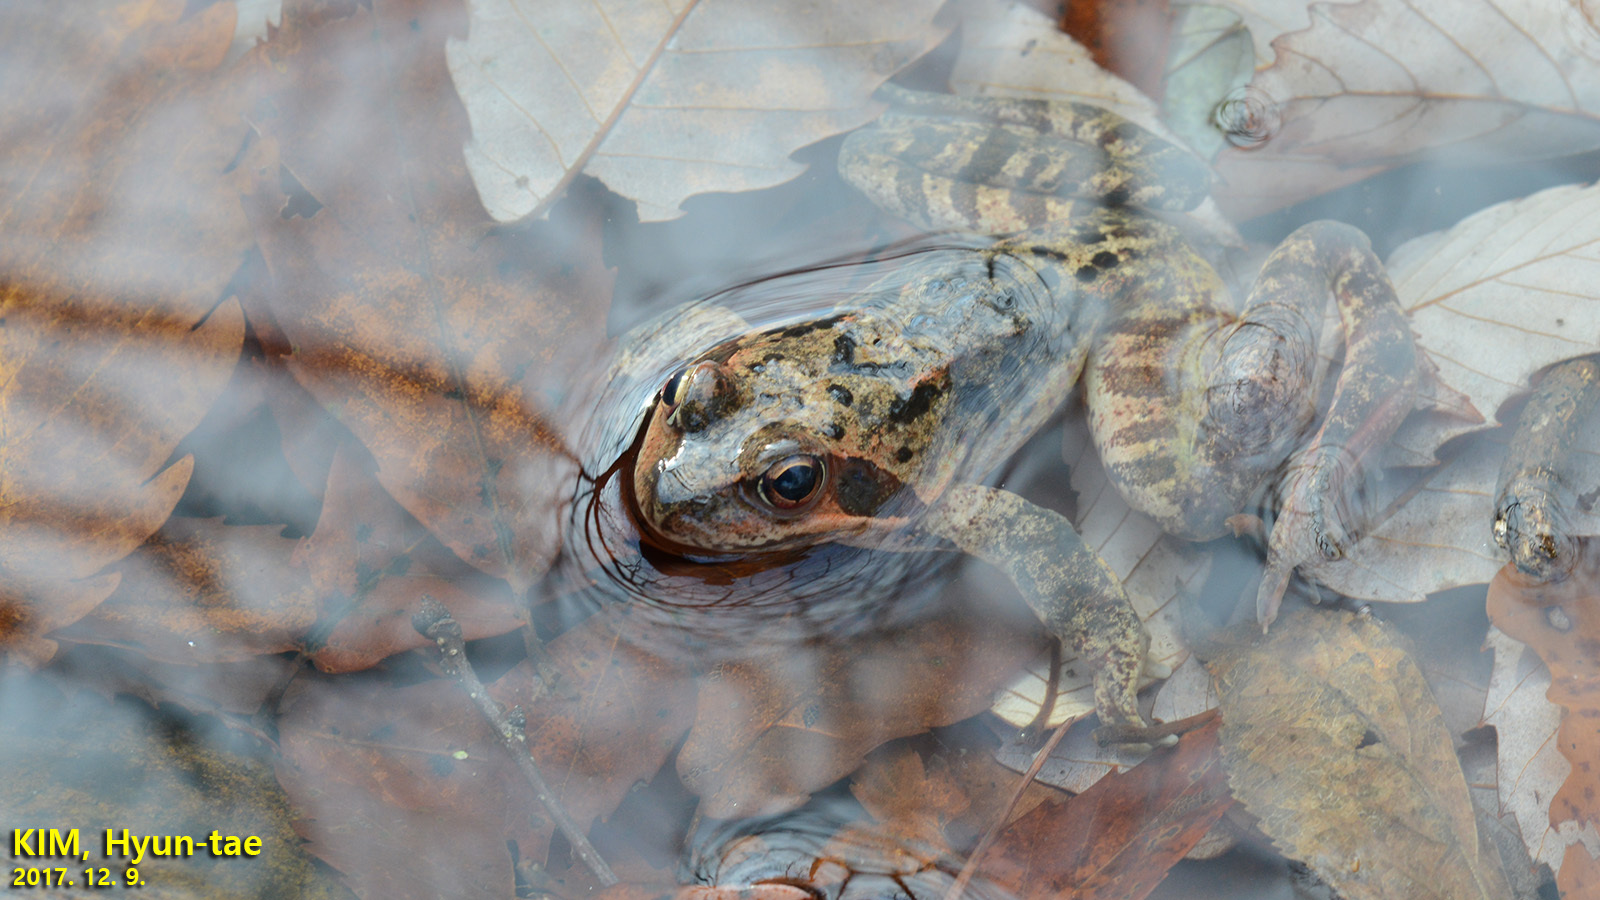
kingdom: Animalia
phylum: Chordata
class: Amphibia
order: Anura
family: Ranidae
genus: Rana
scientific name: Rana dybowskii
